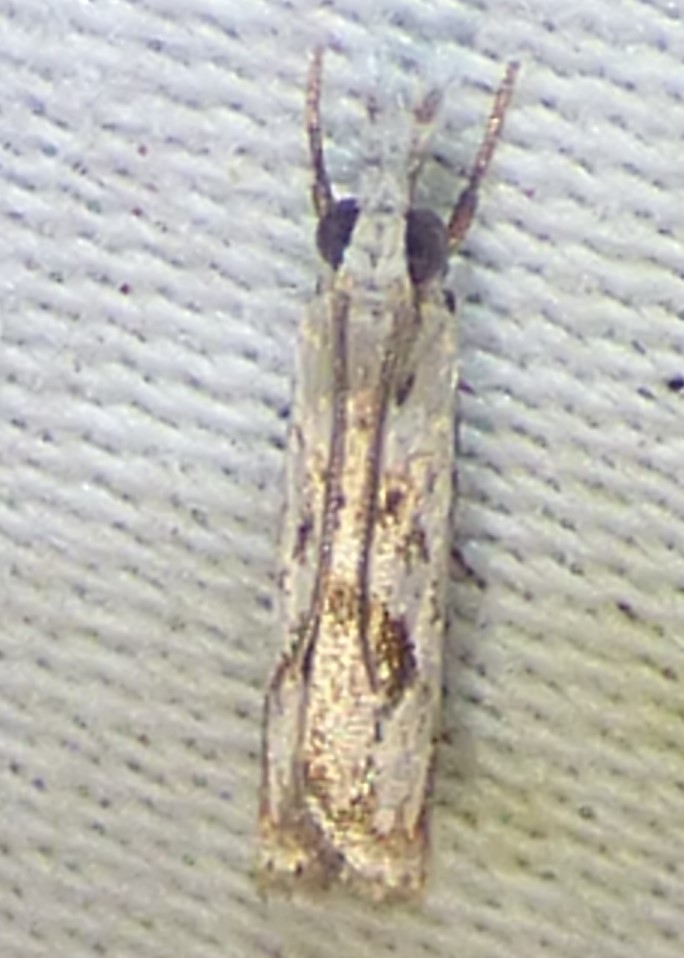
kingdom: Animalia
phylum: Arthropoda
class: Insecta
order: Lepidoptera
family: Crambidae
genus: Microcrambus
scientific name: Microcrambus immunellus
